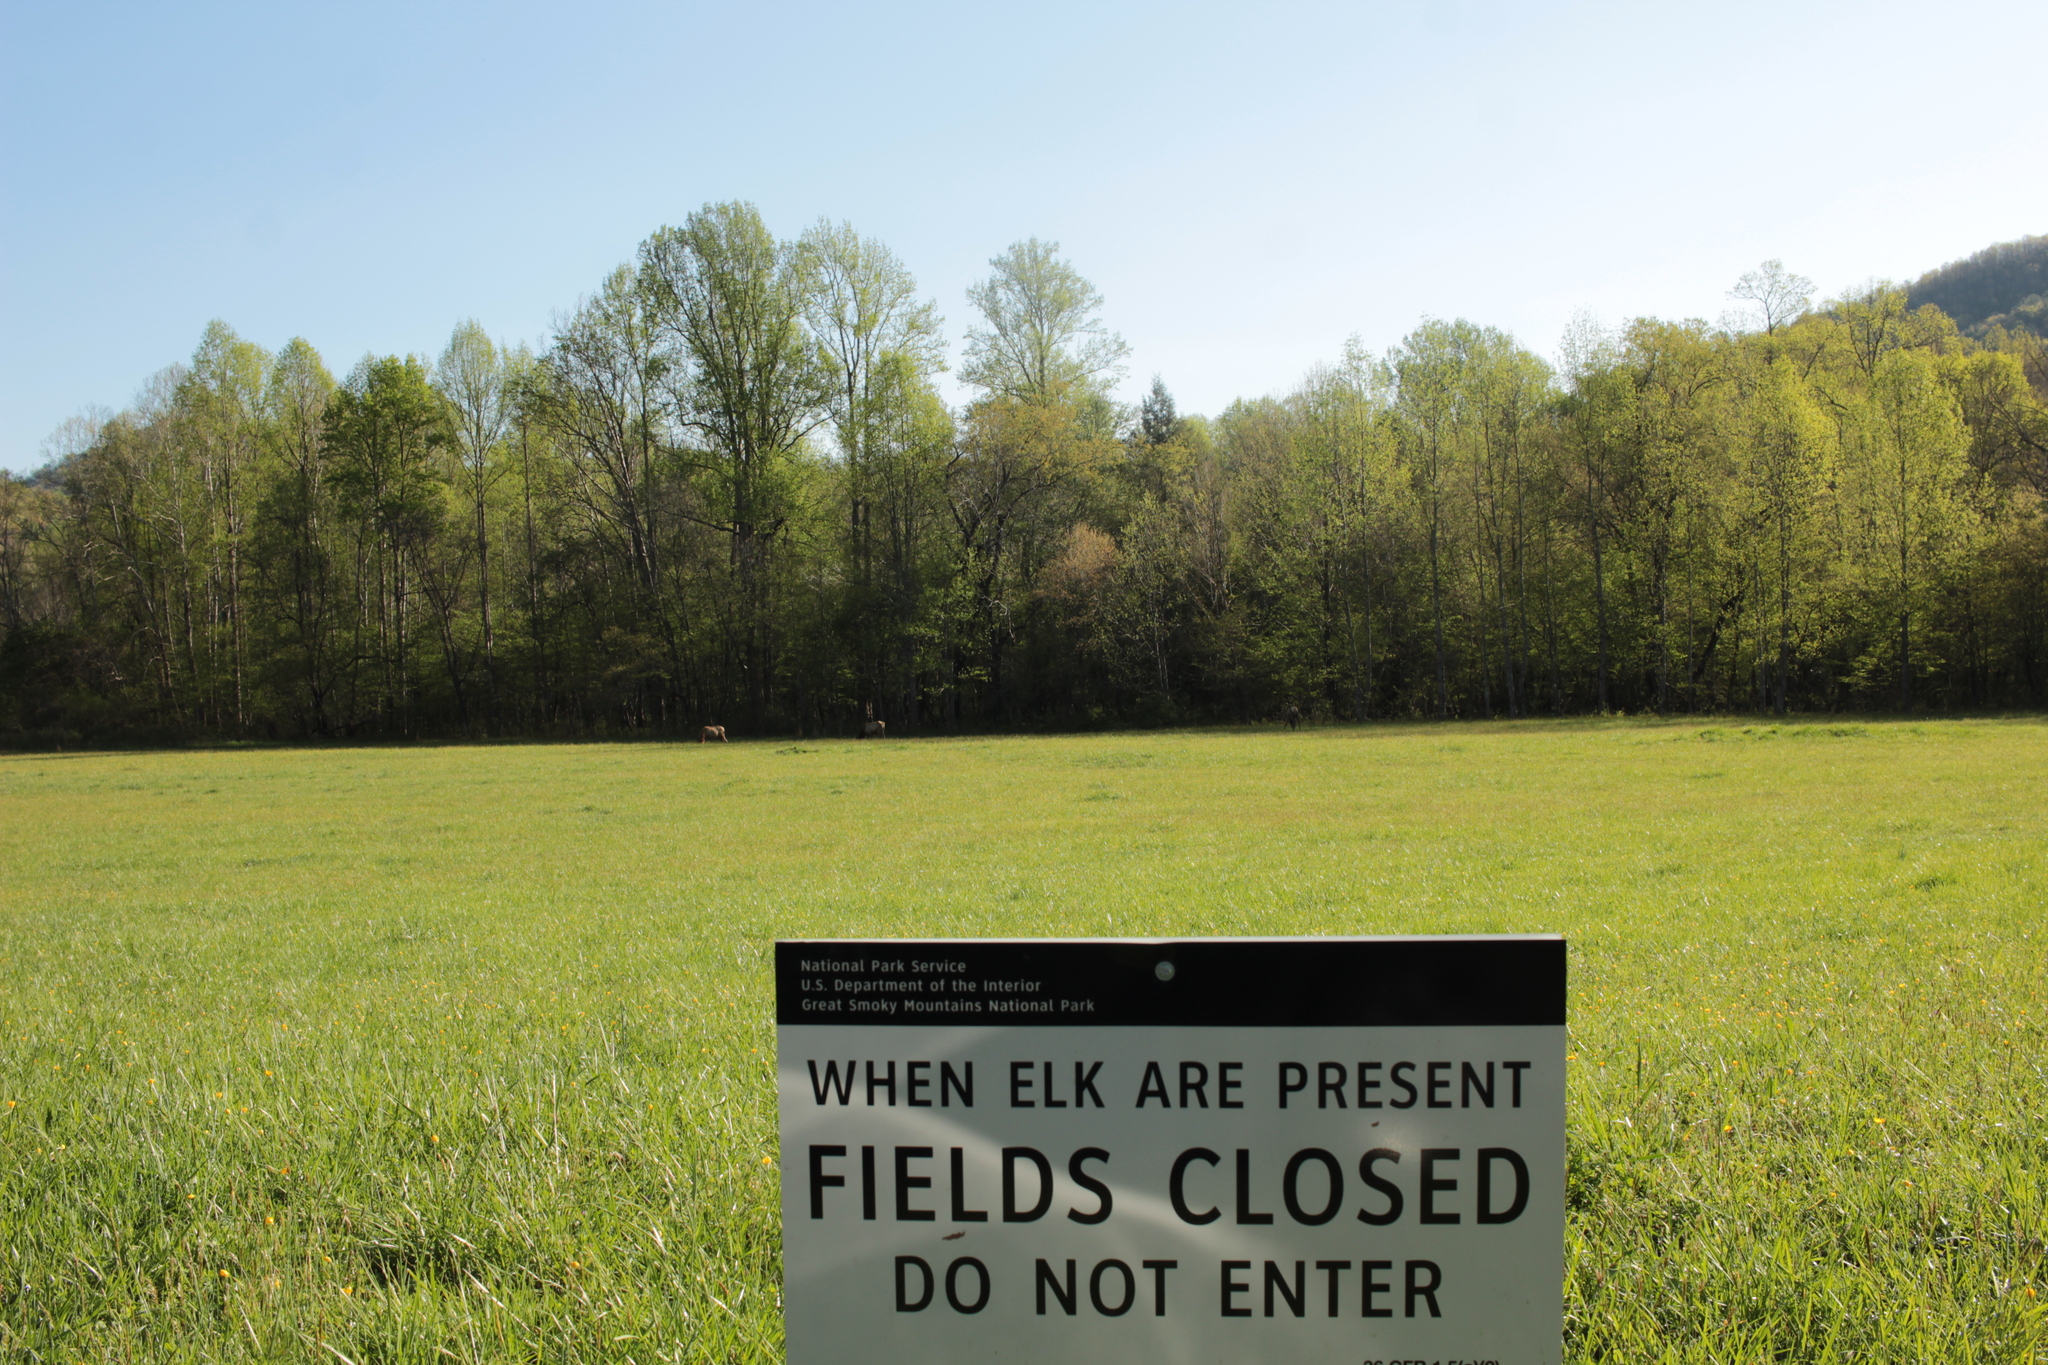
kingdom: Animalia
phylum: Chordata
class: Mammalia
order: Artiodactyla
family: Cervidae
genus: Cervus
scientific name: Cervus elaphus
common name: Red deer
